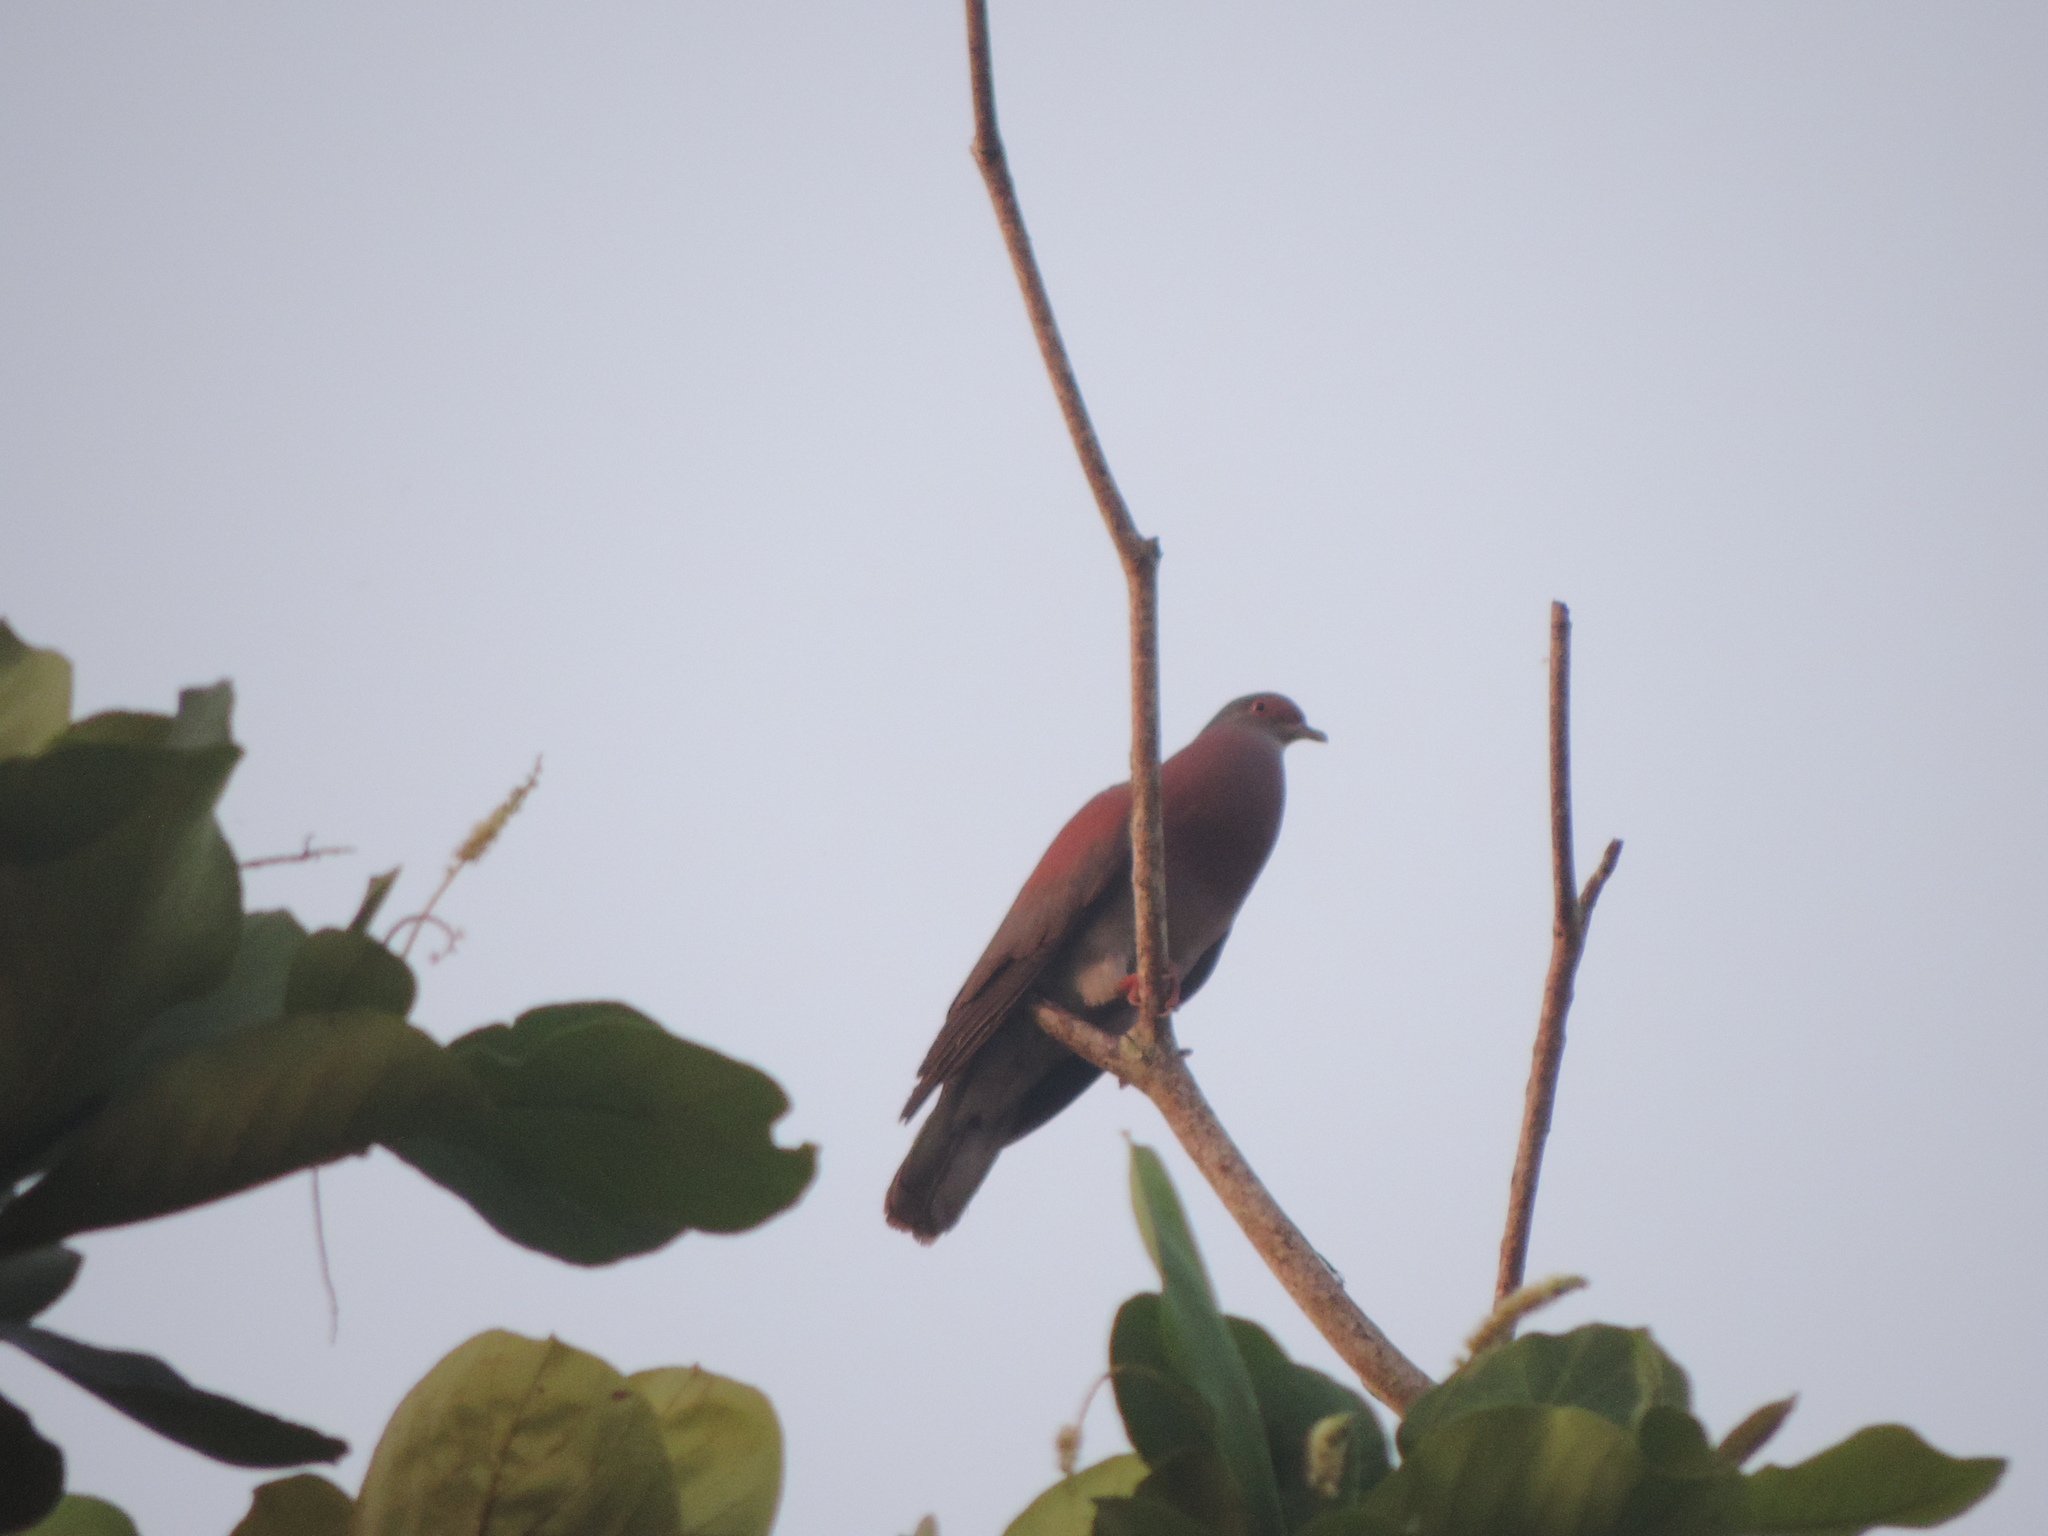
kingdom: Animalia
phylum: Chordata
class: Aves
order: Columbiformes
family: Columbidae
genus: Patagioenas
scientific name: Patagioenas cayennensis
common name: Pale-vented pigeon
